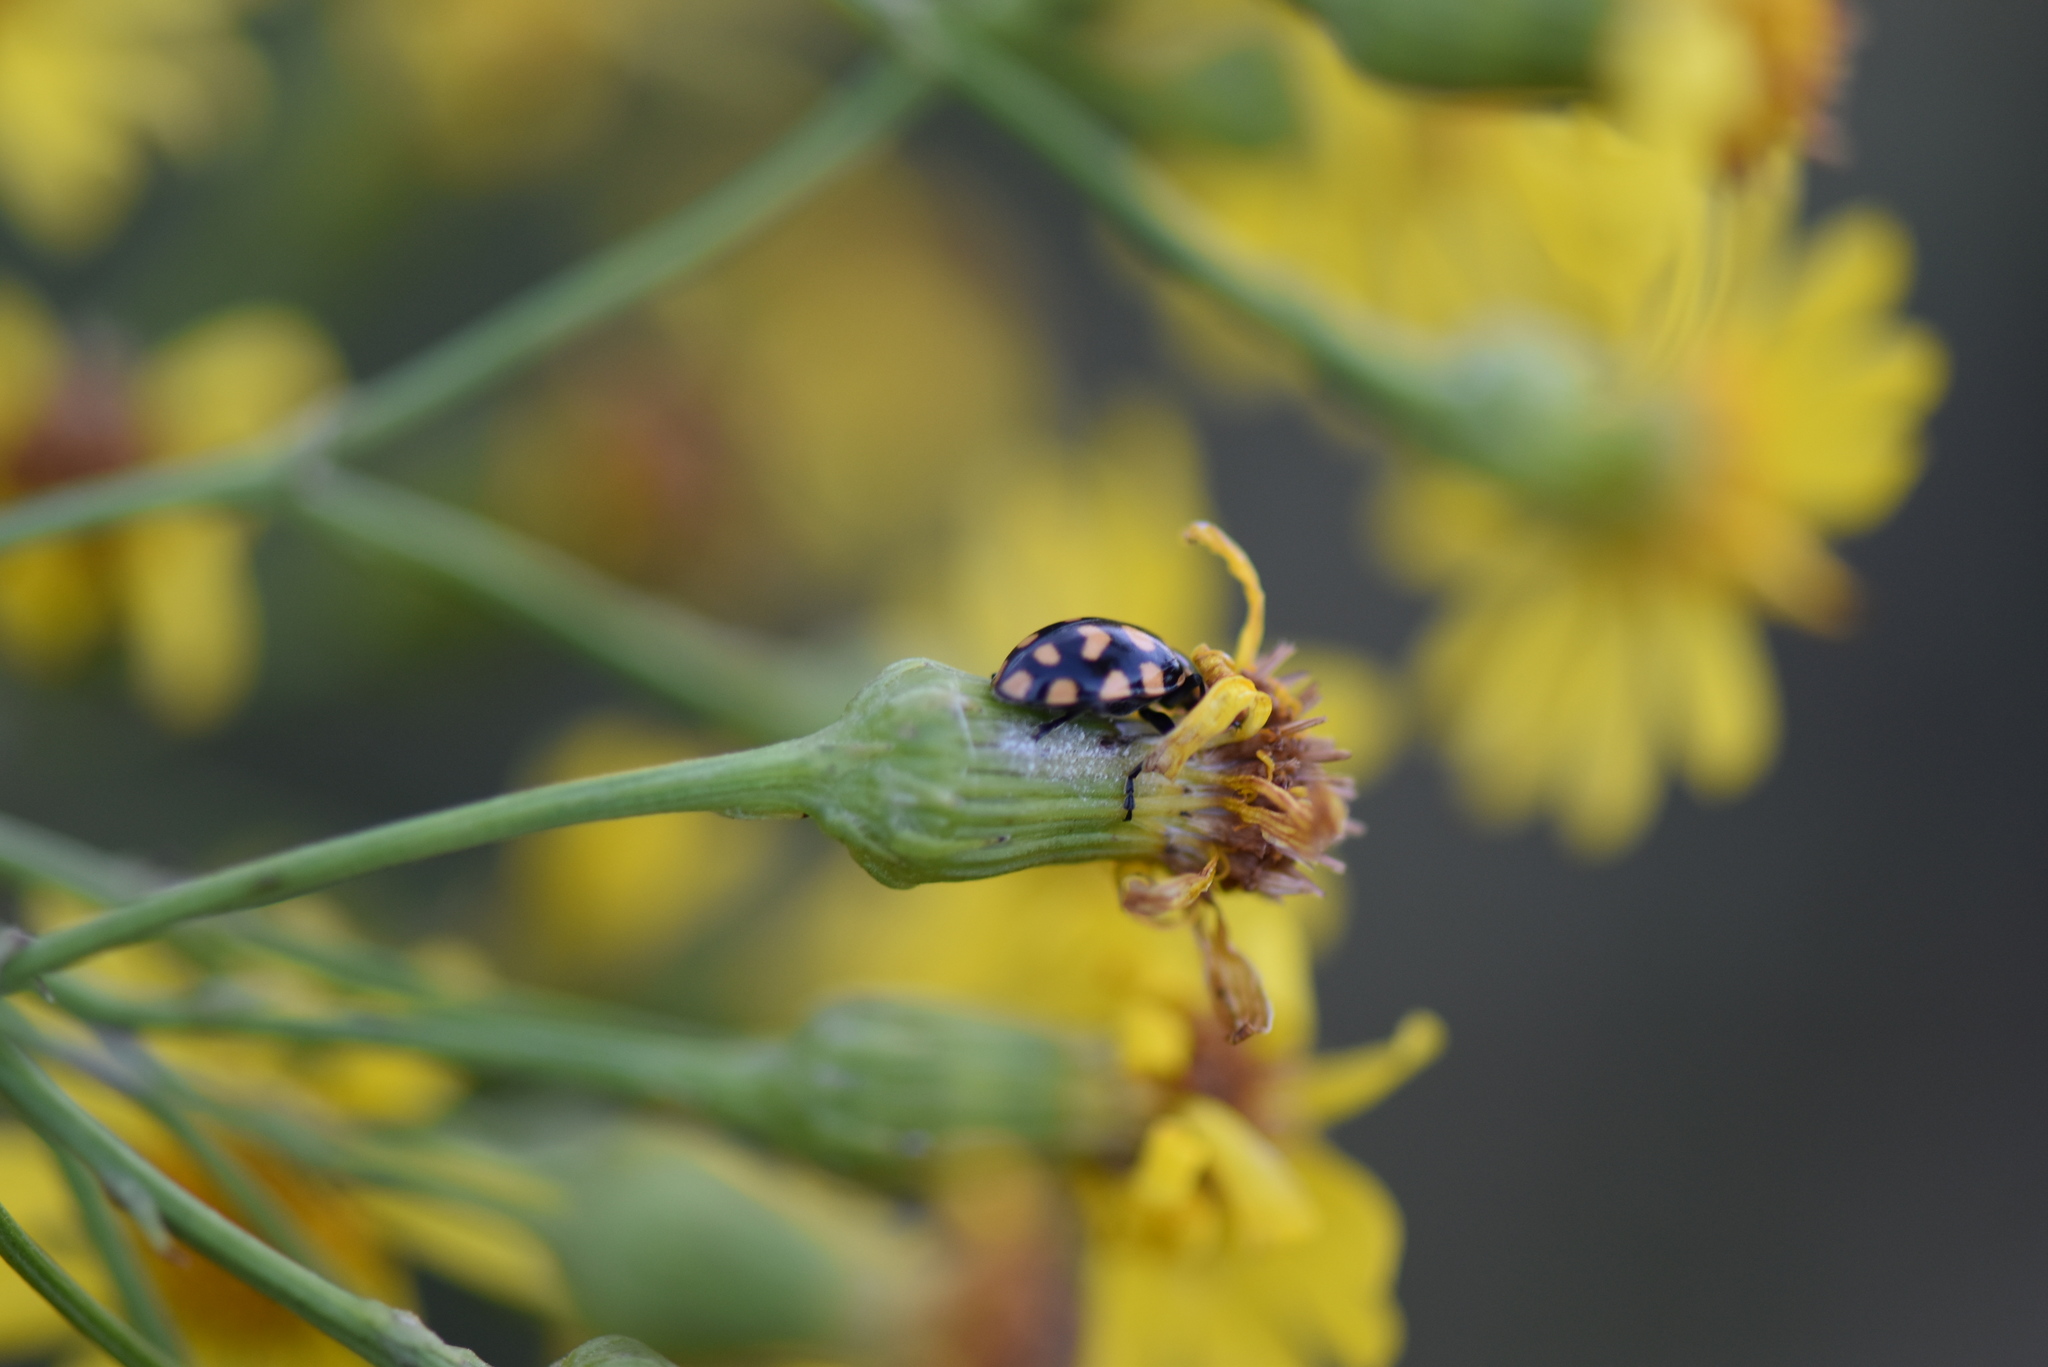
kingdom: Animalia
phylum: Arthropoda
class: Insecta
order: Coleoptera
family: Coccinellidae
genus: Coleomegilla
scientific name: Coleomegilla
